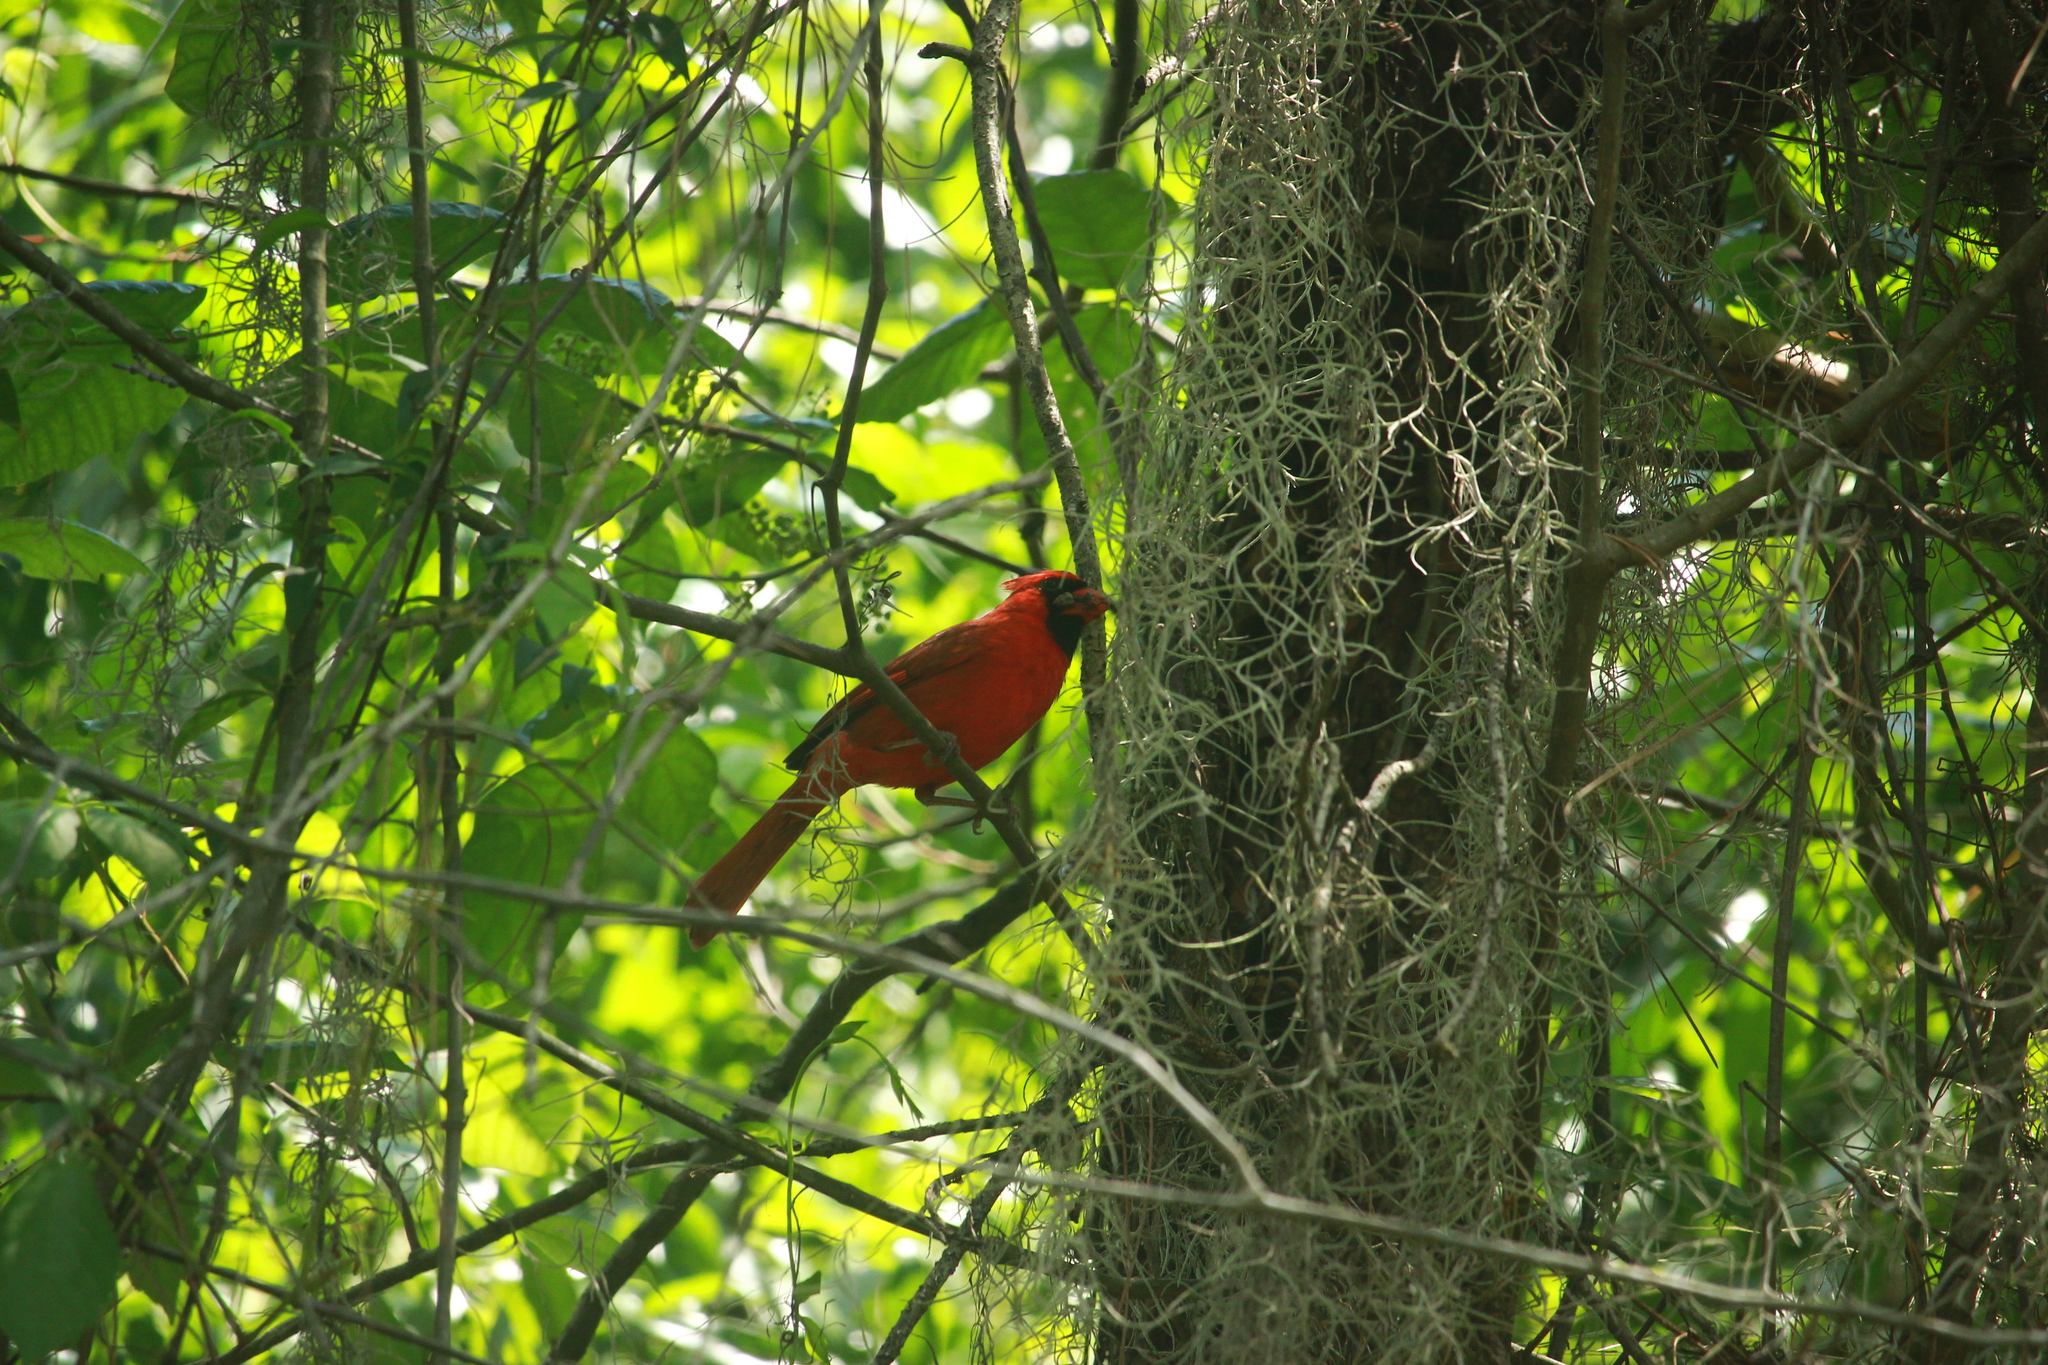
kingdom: Animalia
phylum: Chordata
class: Aves
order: Passeriformes
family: Cardinalidae
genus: Cardinalis
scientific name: Cardinalis cardinalis
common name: Northern cardinal
